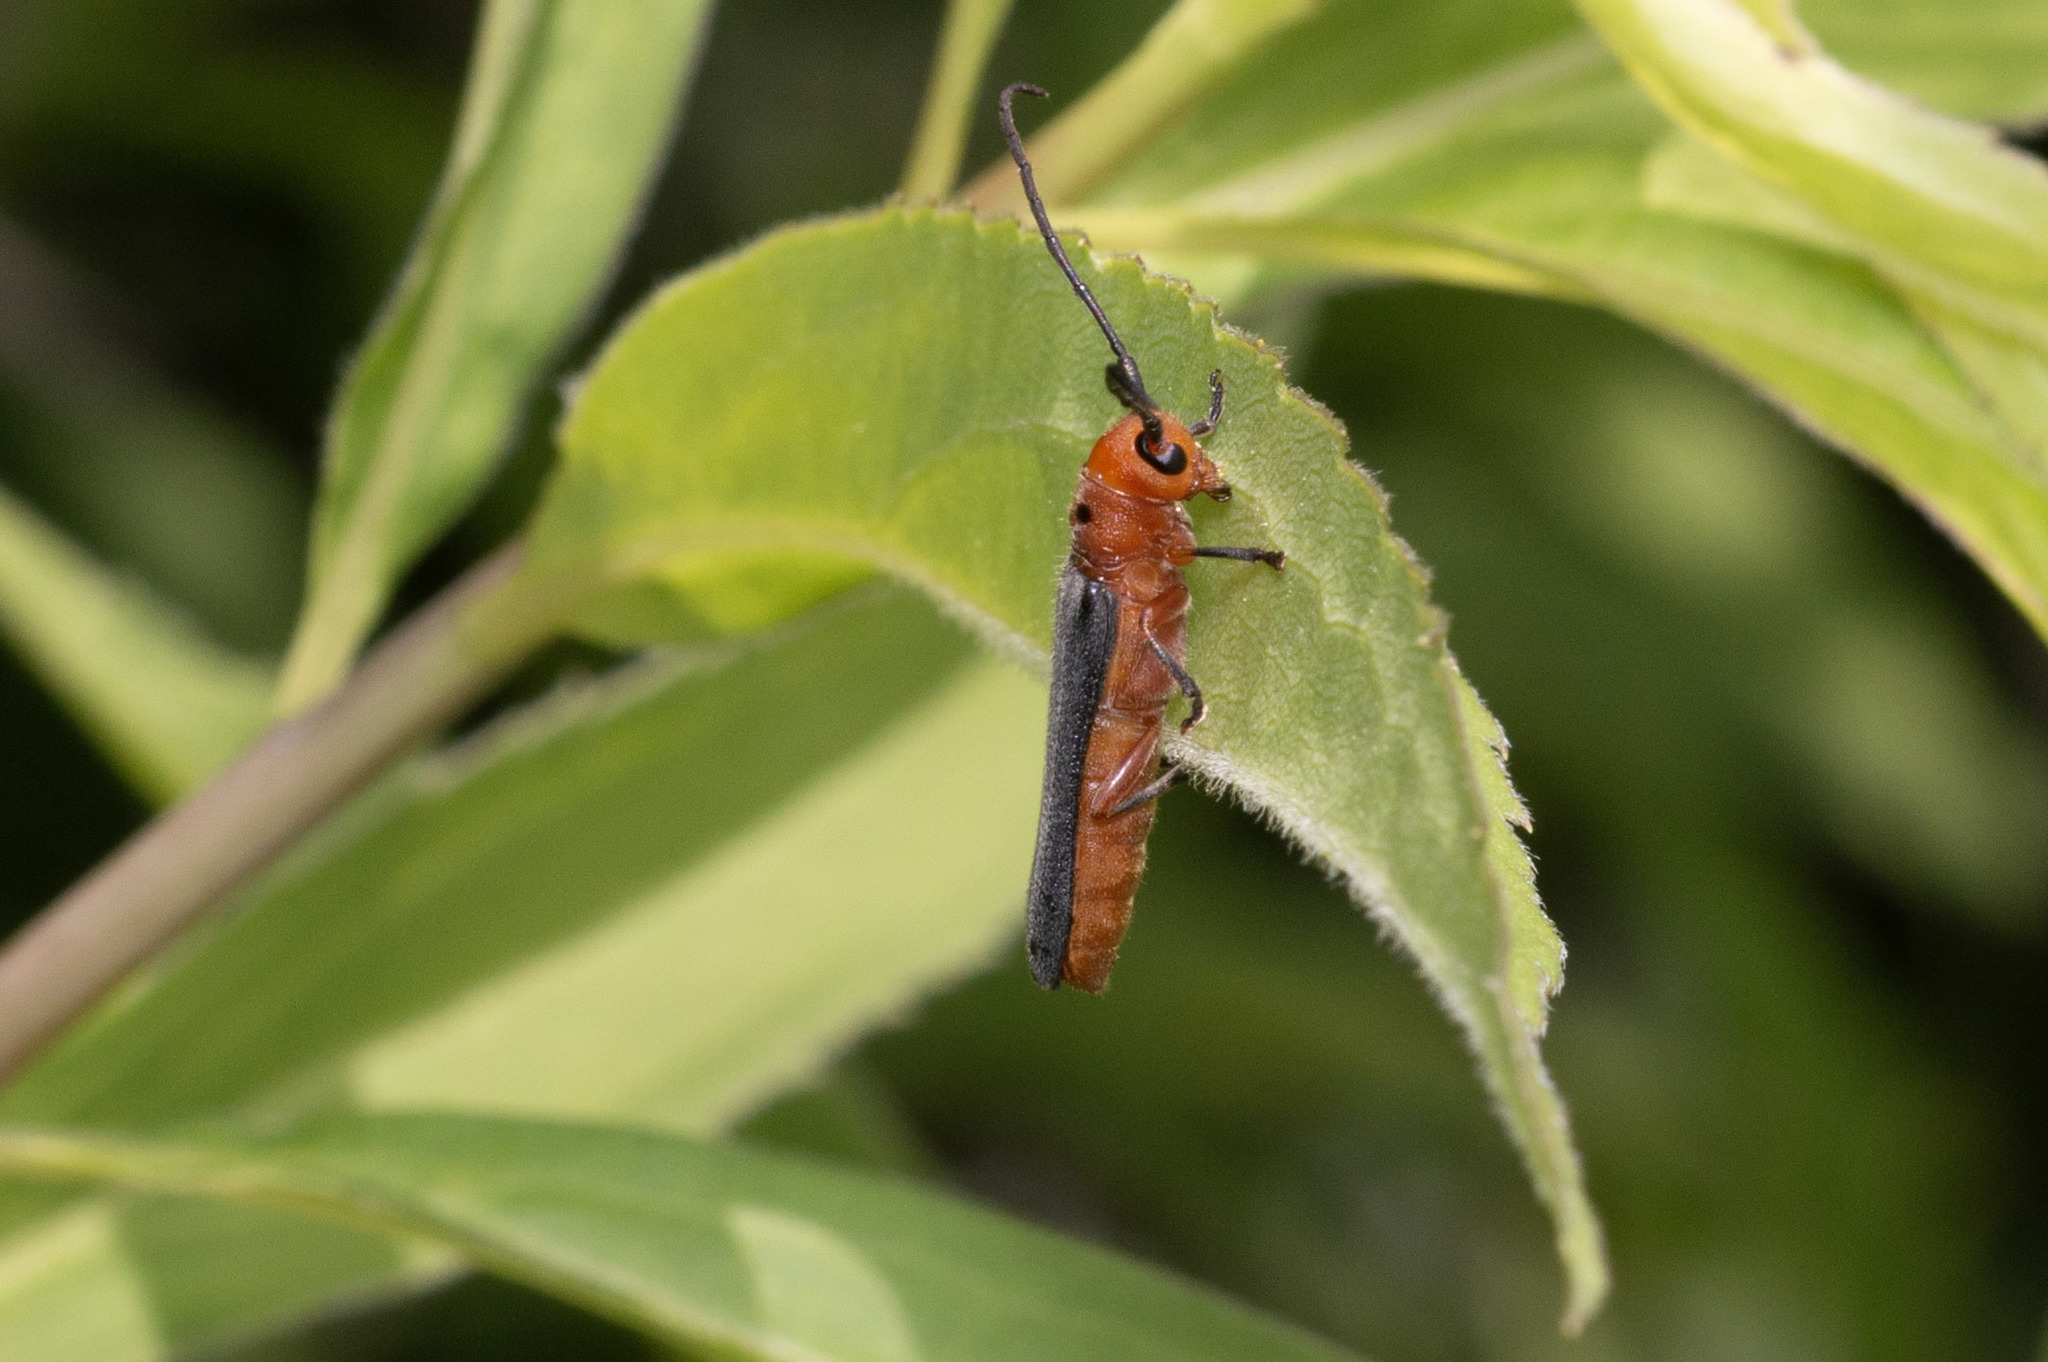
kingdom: Animalia
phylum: Arthropoda
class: Insecta
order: Coleoptera
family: Cerambycidae
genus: Oberea
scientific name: Oberea ocellata
